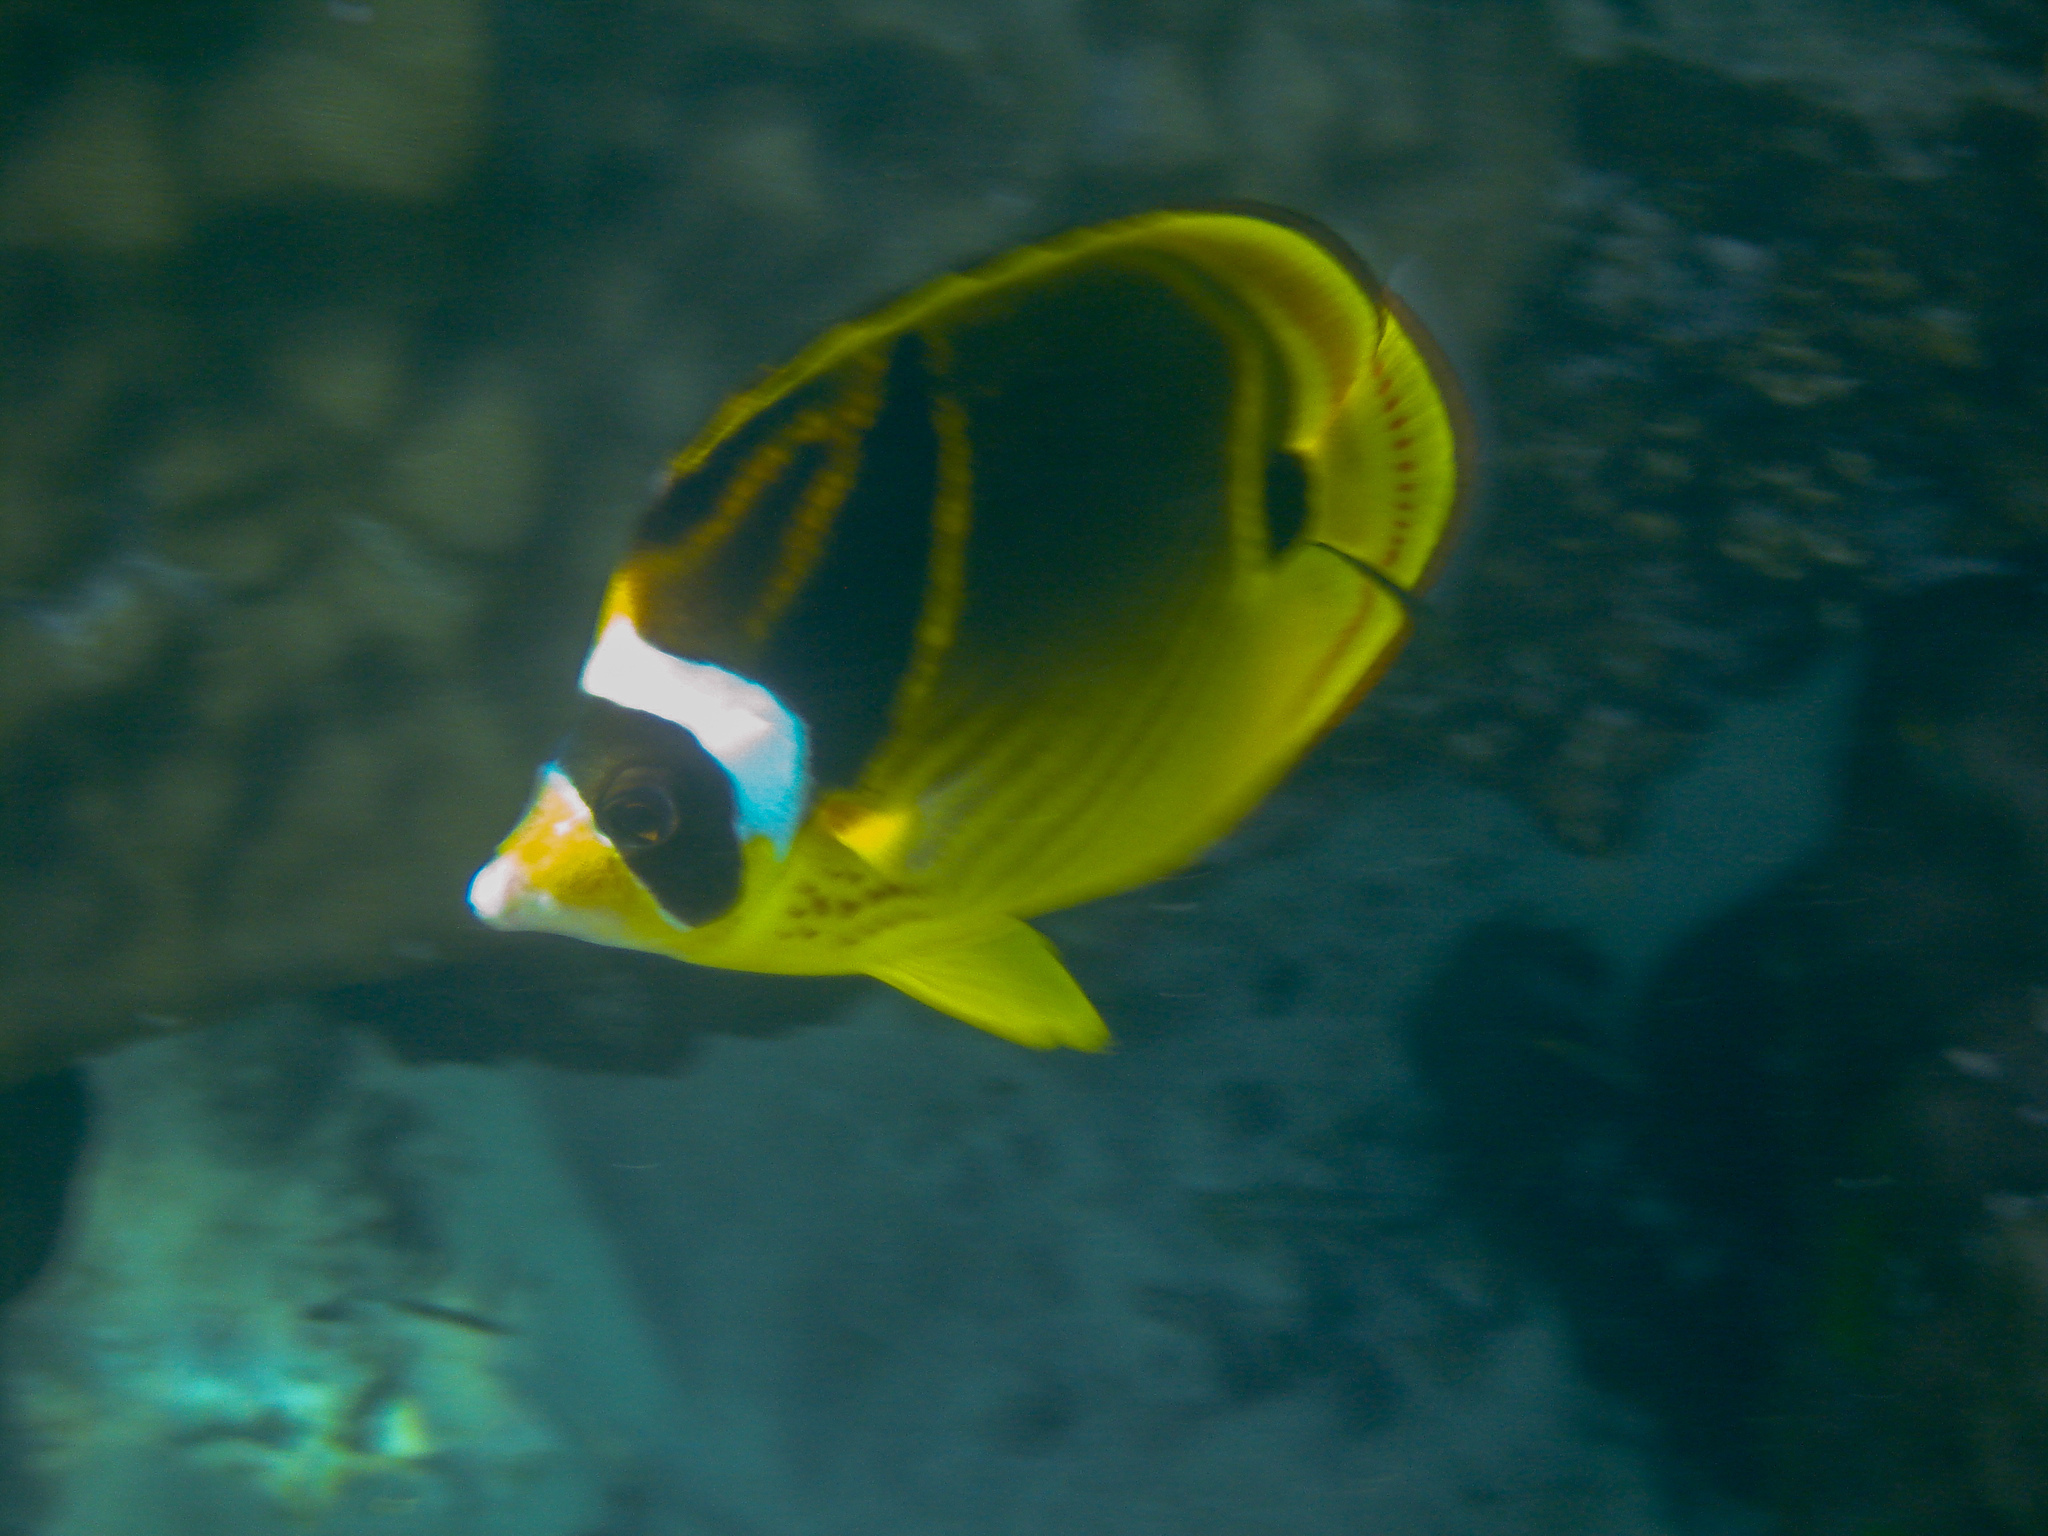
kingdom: Animalia
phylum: Chordata
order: Perciformes
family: Chaetodontidae
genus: Chaetodon
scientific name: Chaetodon lunula
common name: Raccoon butterflyfish
